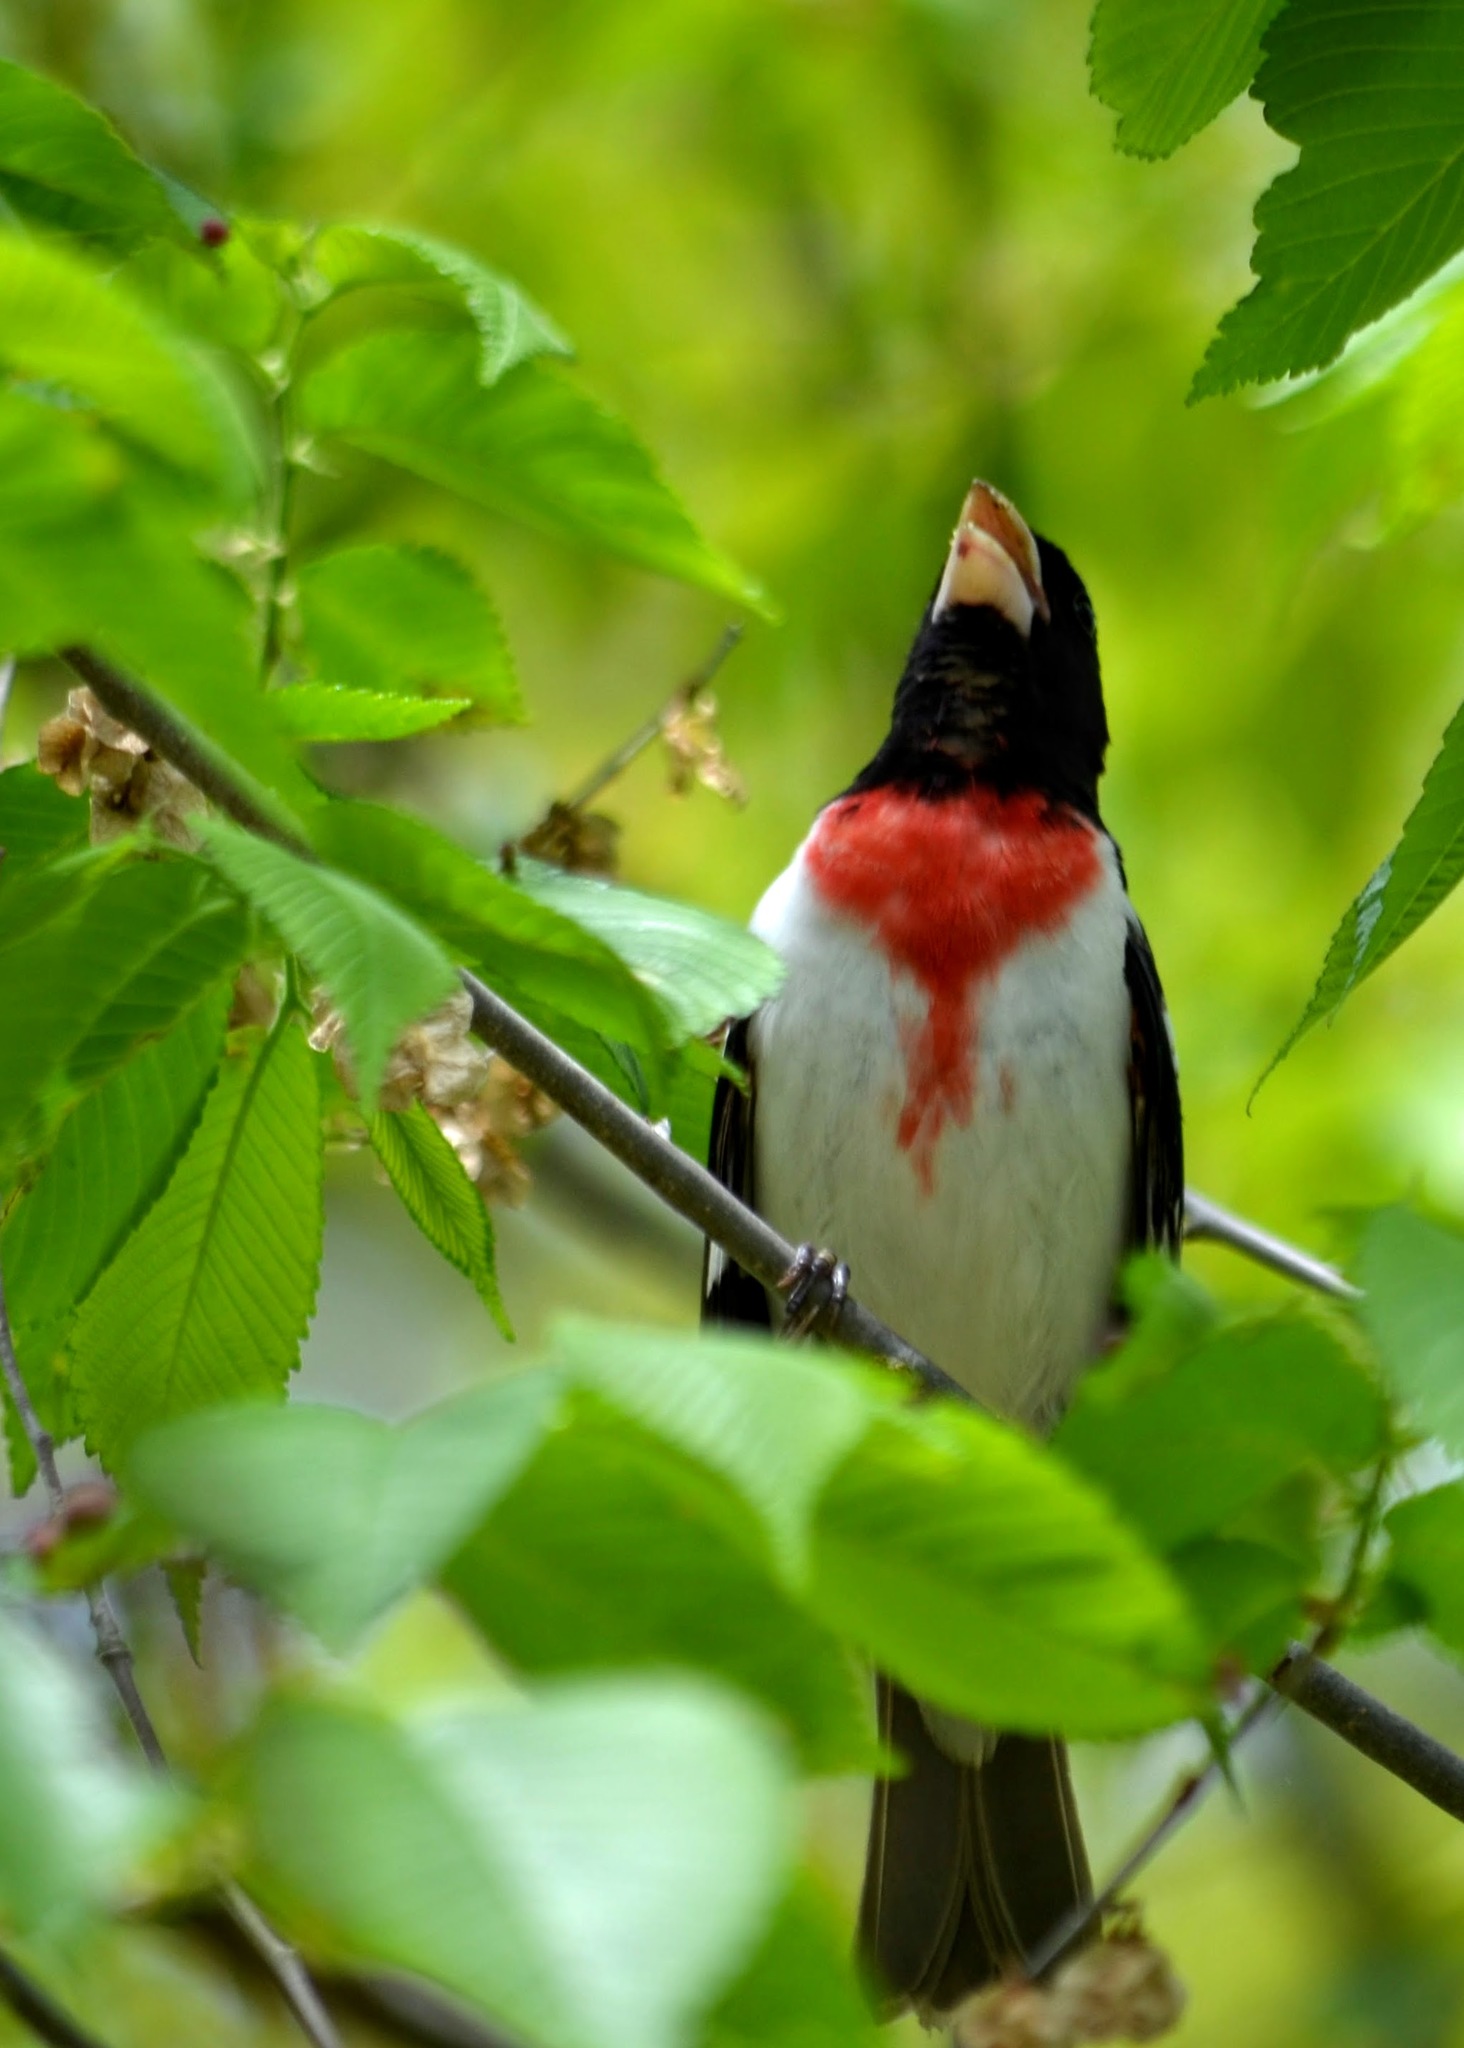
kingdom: Animalia
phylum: Chordata
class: Aves
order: Passeriformes
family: Cardinalidae
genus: Pheucticus
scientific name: Pheucticus ludovicianus
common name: Rose-breasted grosbeak
